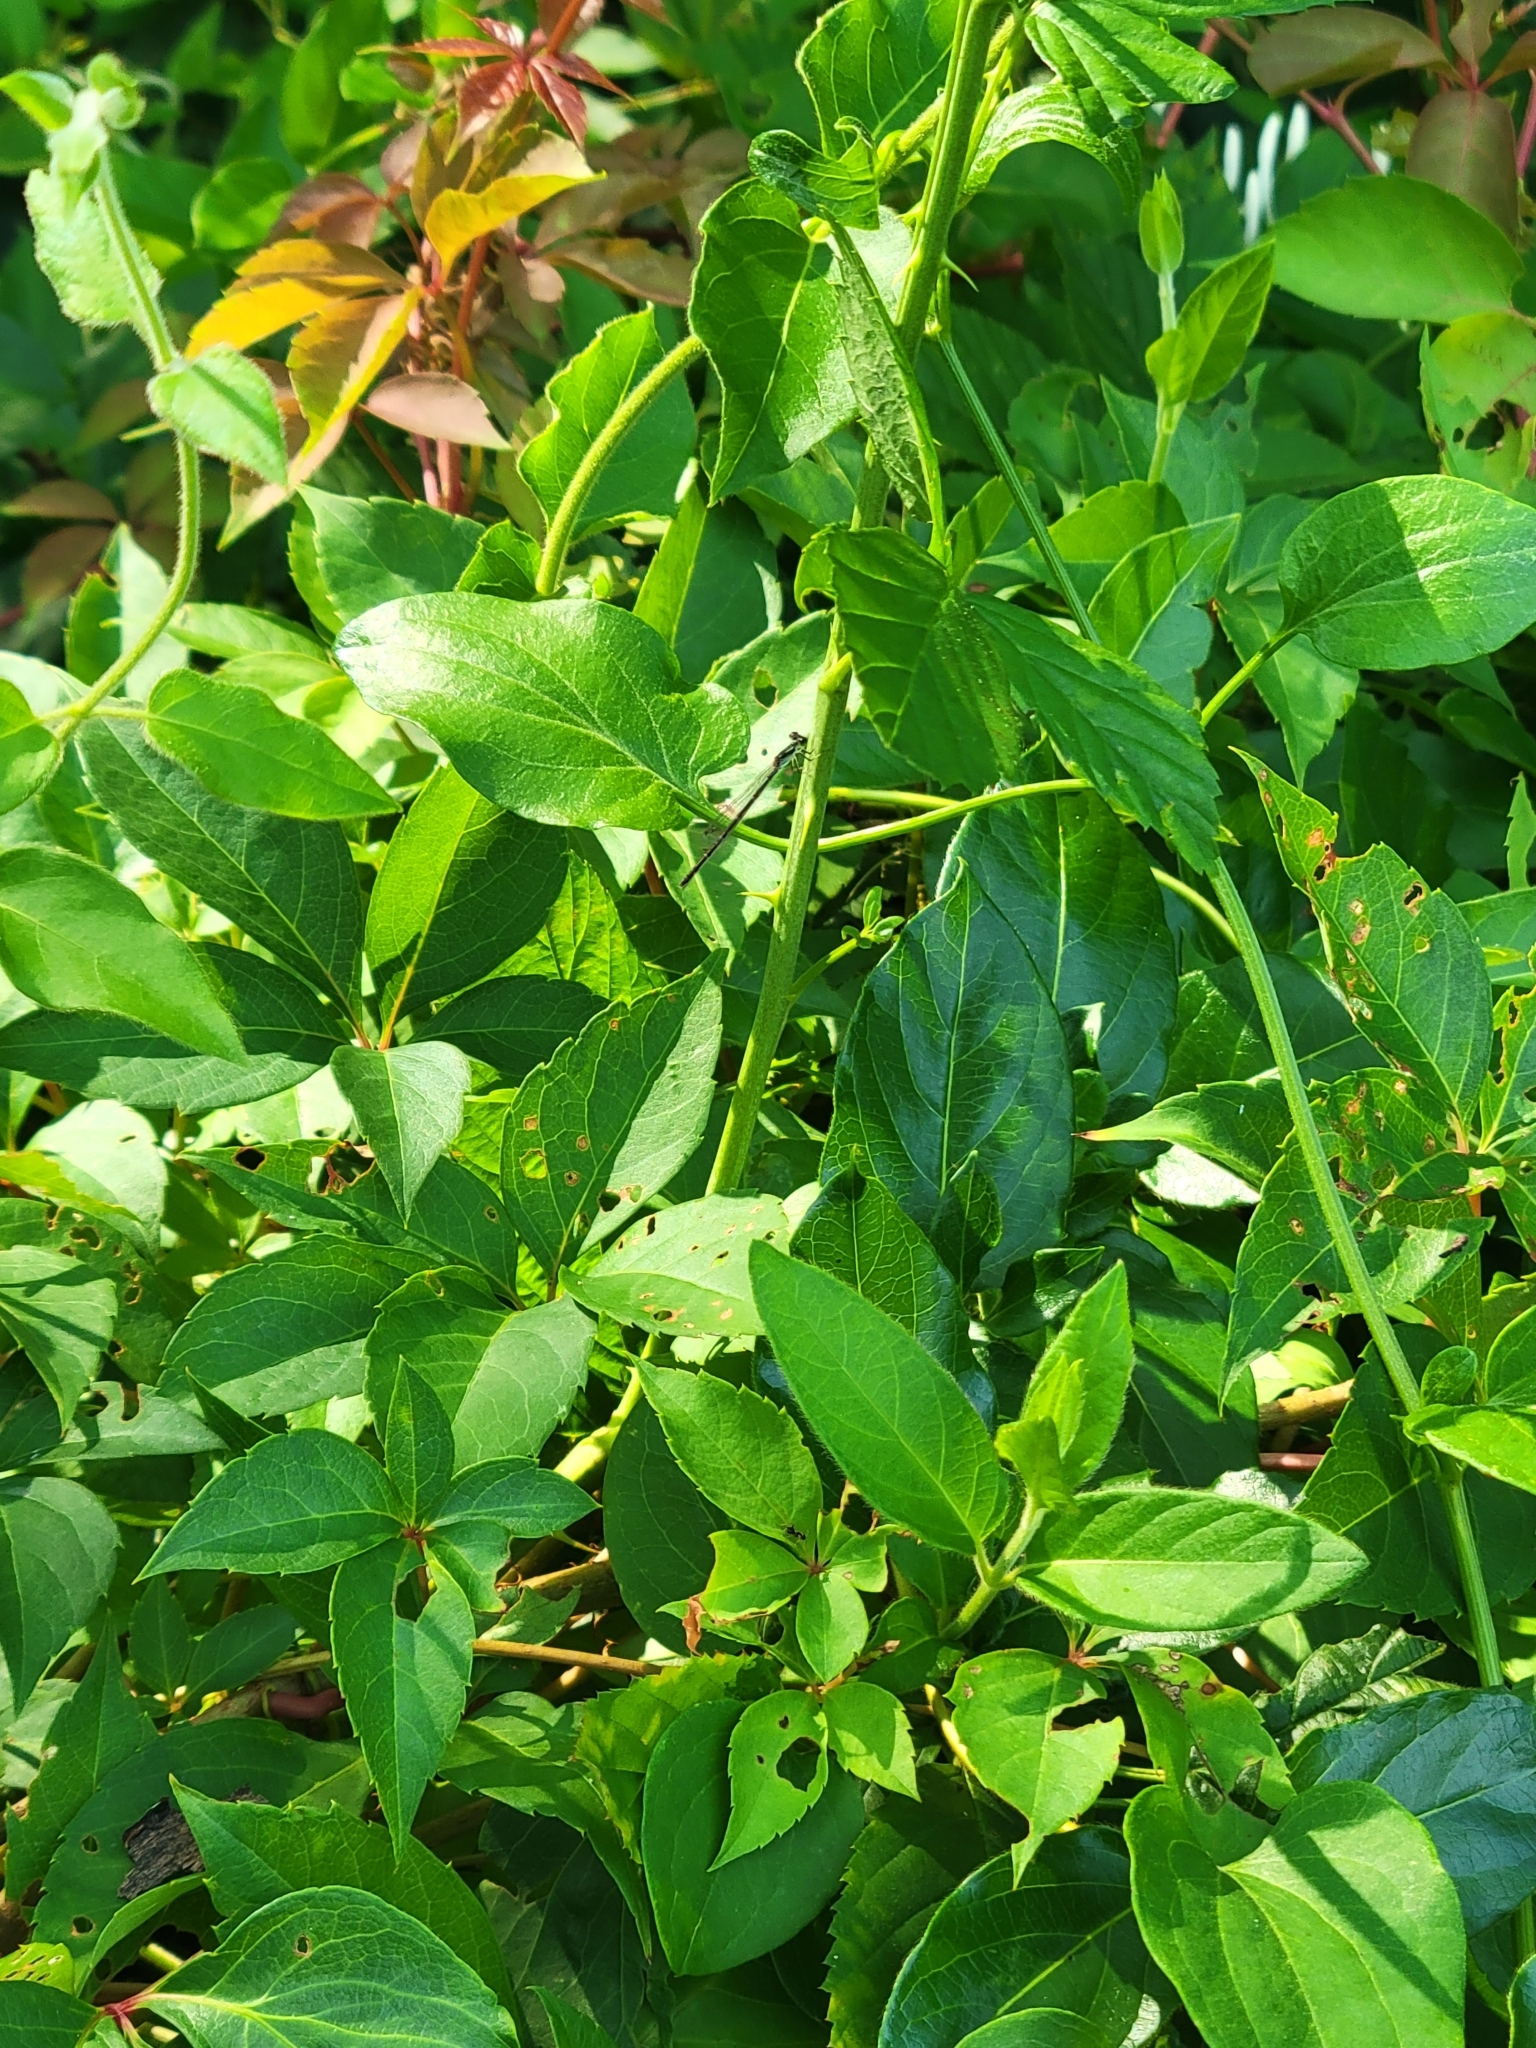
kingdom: Animalia
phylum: Arthropoda
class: Insecta
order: Odonata
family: Coenagrionidae
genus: Ischnura
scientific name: Ischnura posita
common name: Fragile forktail
